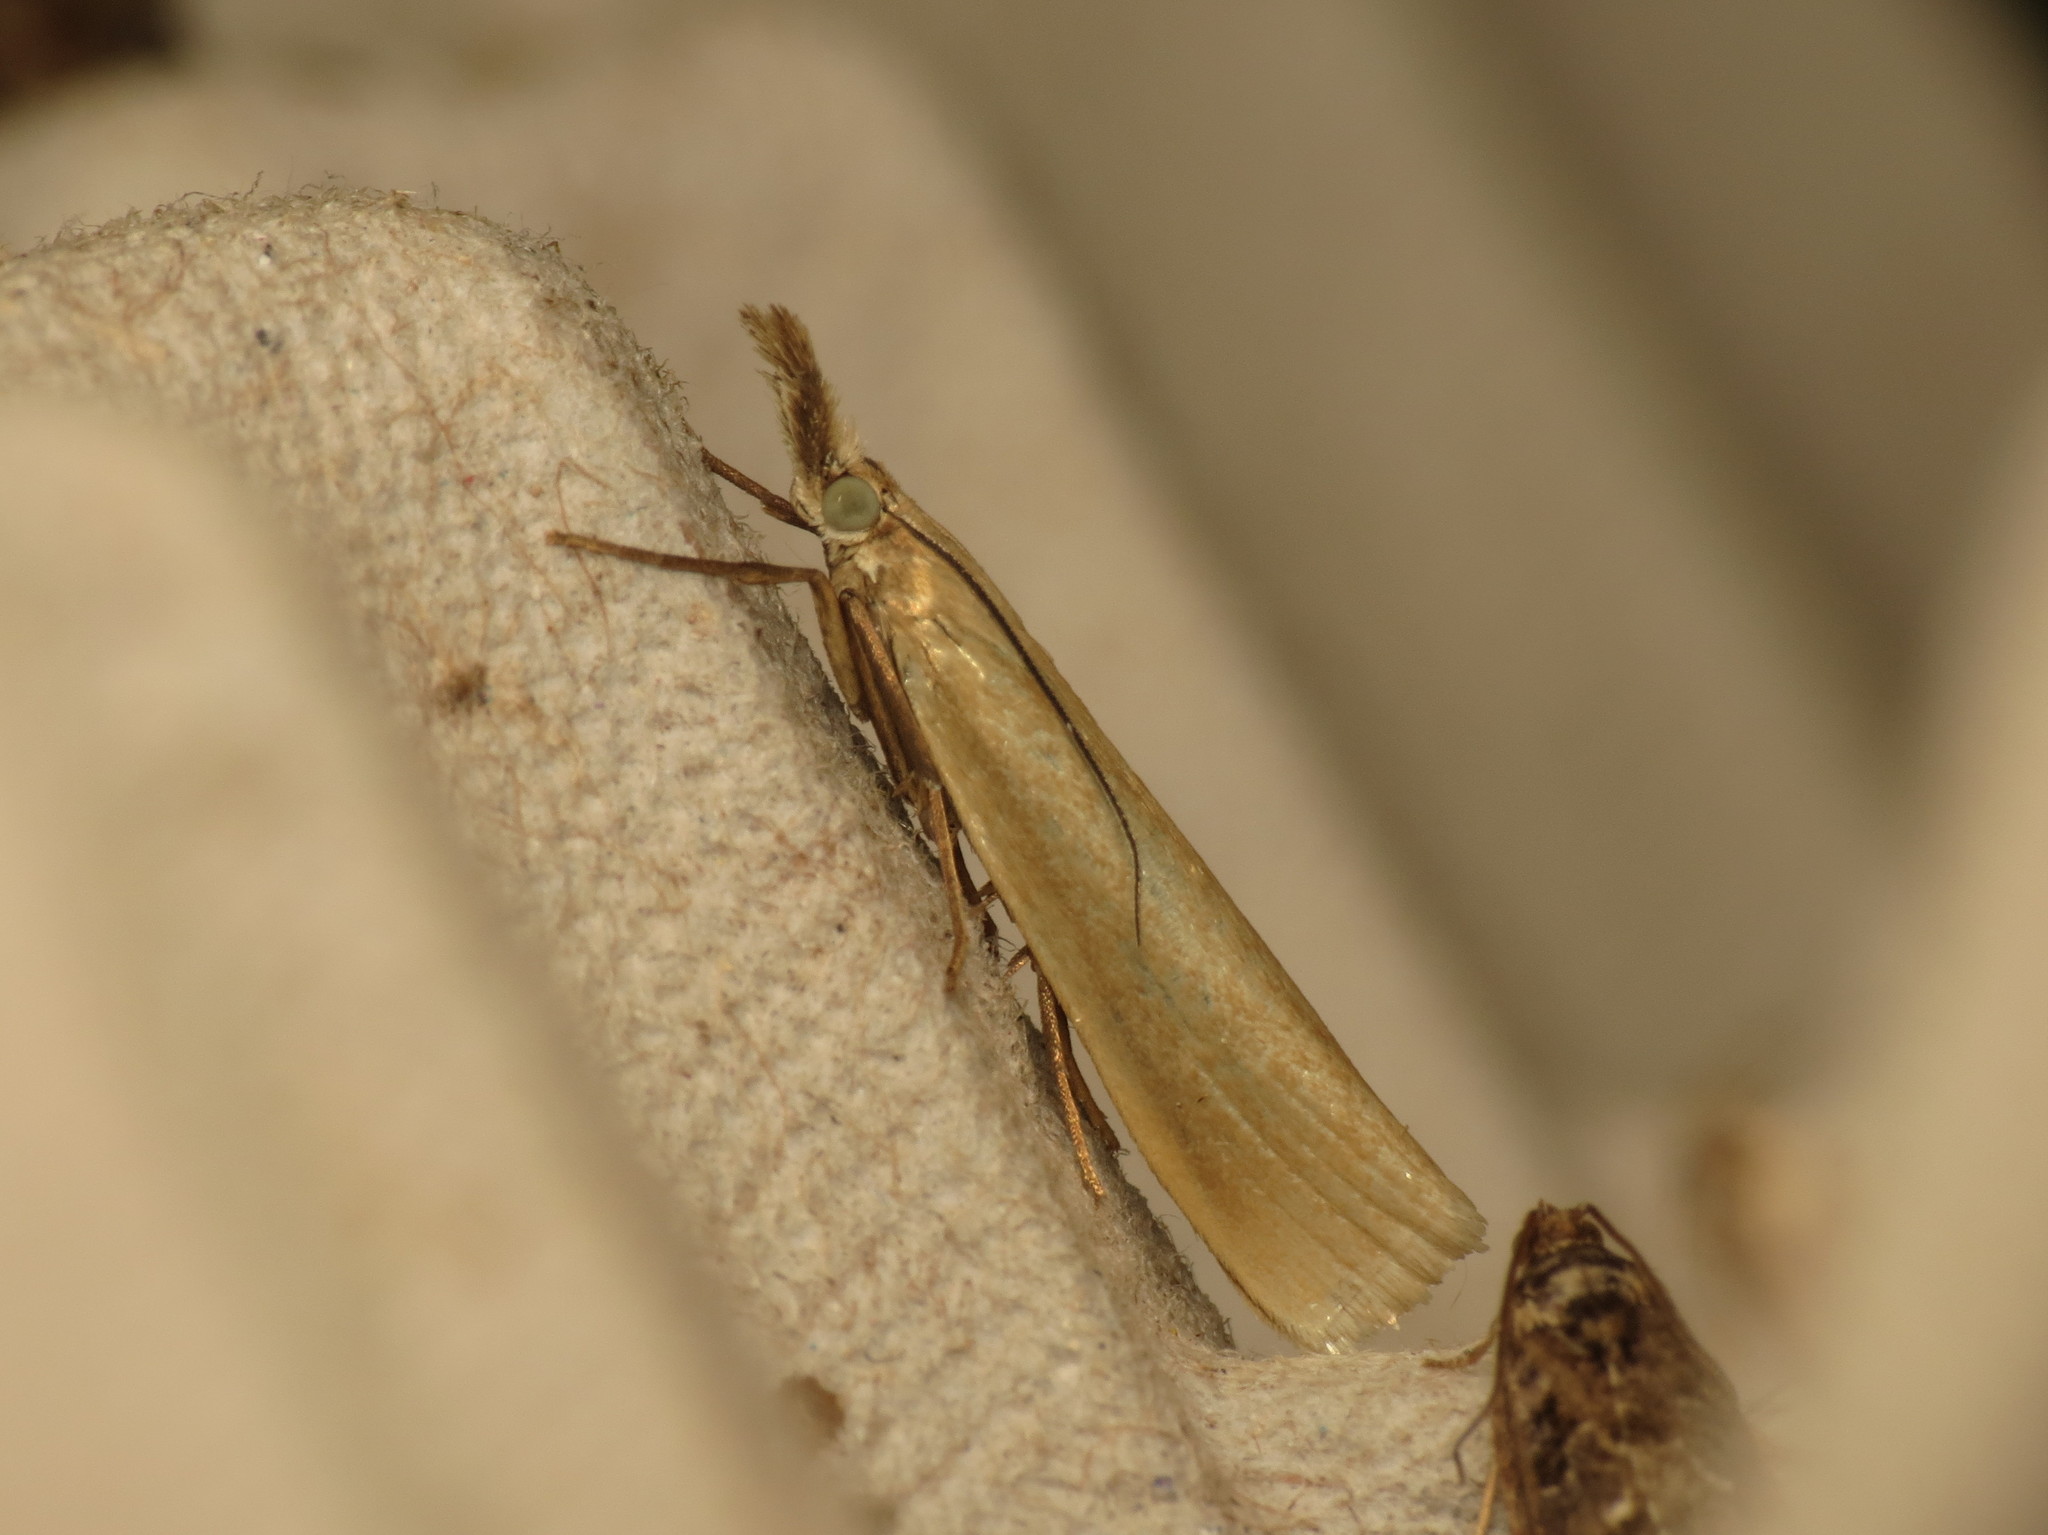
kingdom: Animalia
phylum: Arthropoda
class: Insecta
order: Lepidoptera
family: Crambidae
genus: Crambus
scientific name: Crambus perlellus
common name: Yellow satin veneer
